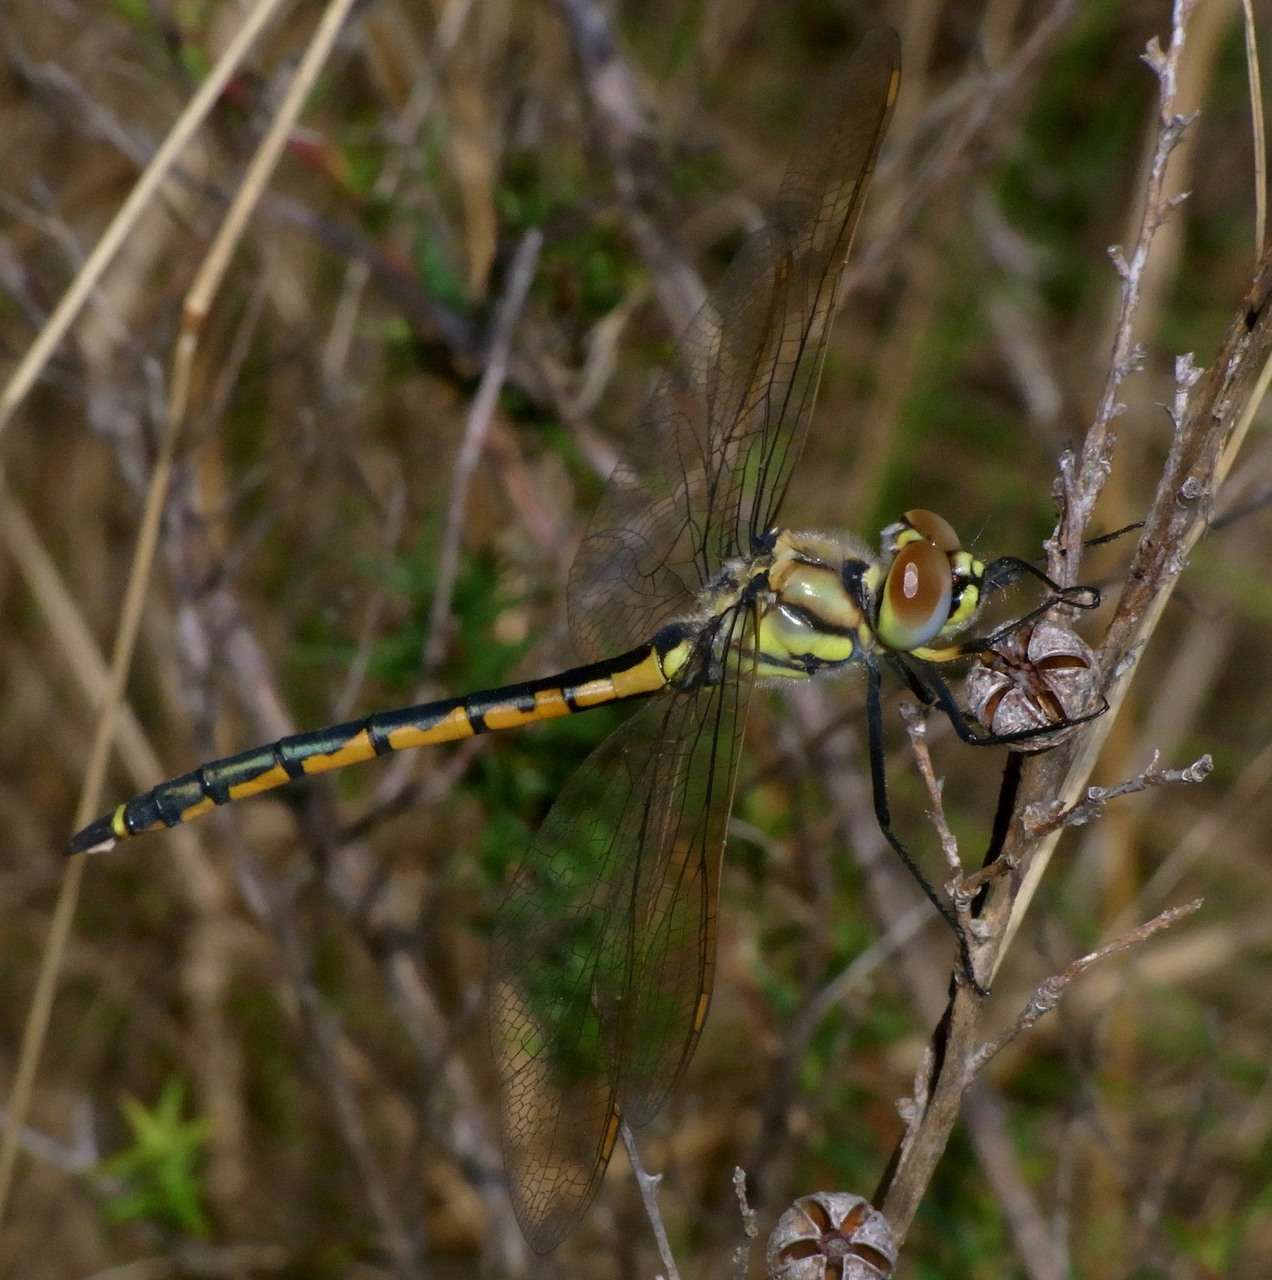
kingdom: Animalia
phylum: Arthropoda
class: Insecta
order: Odonata
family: Corduliidae
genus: Hemicordulia
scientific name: Hemicordulia tau
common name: Tau emerald
